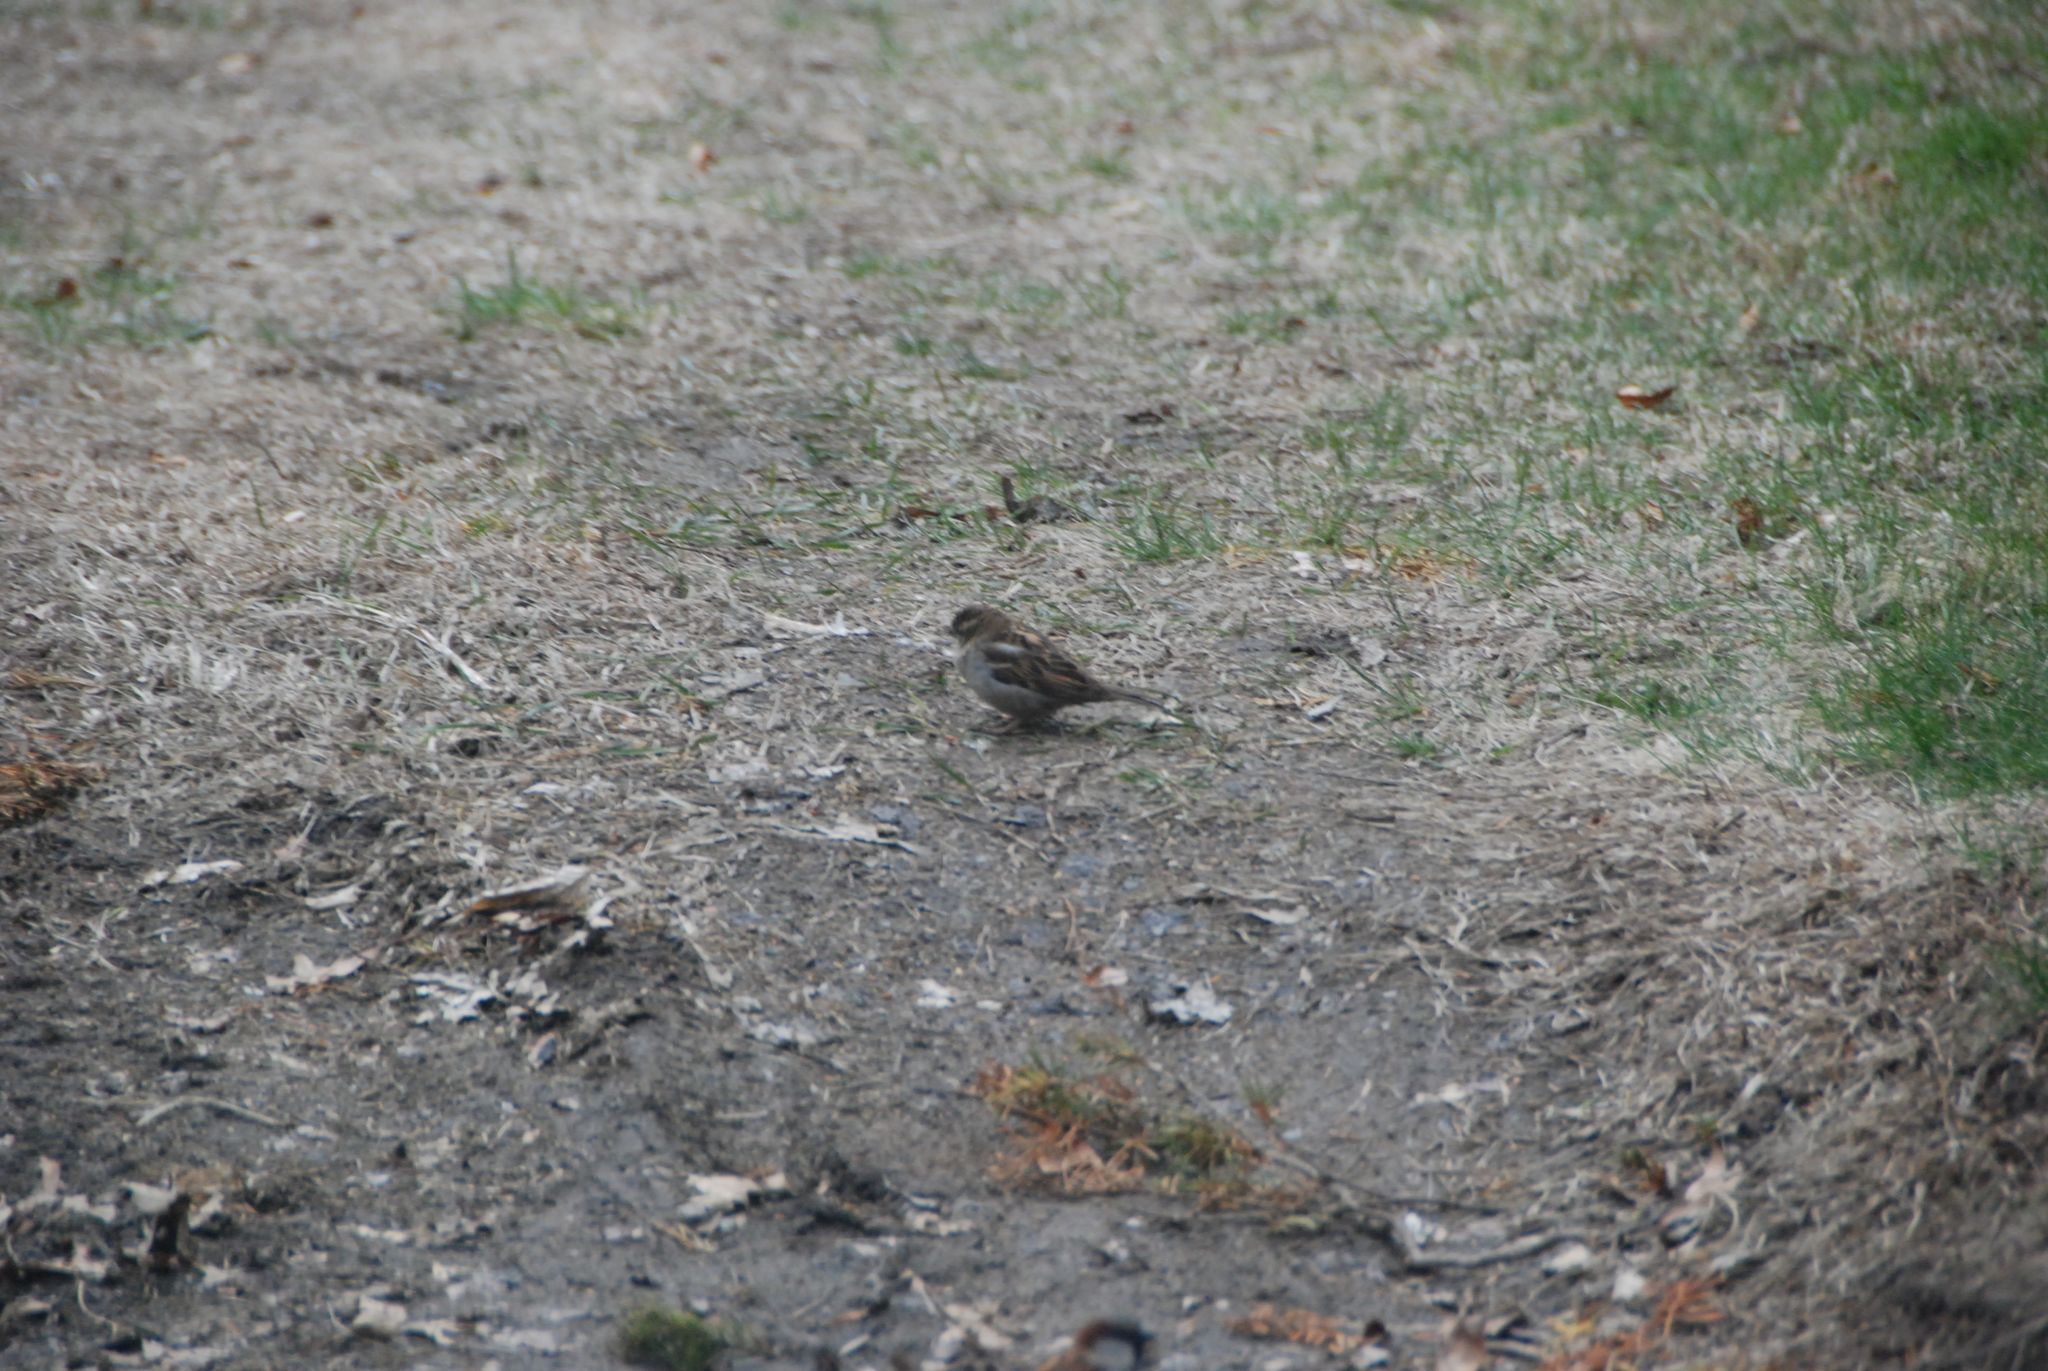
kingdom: Animalia
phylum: Chordata
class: Aves
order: Passeriformes
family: Passeridae
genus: Passer
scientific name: Passer domesticus
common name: House sparrow
